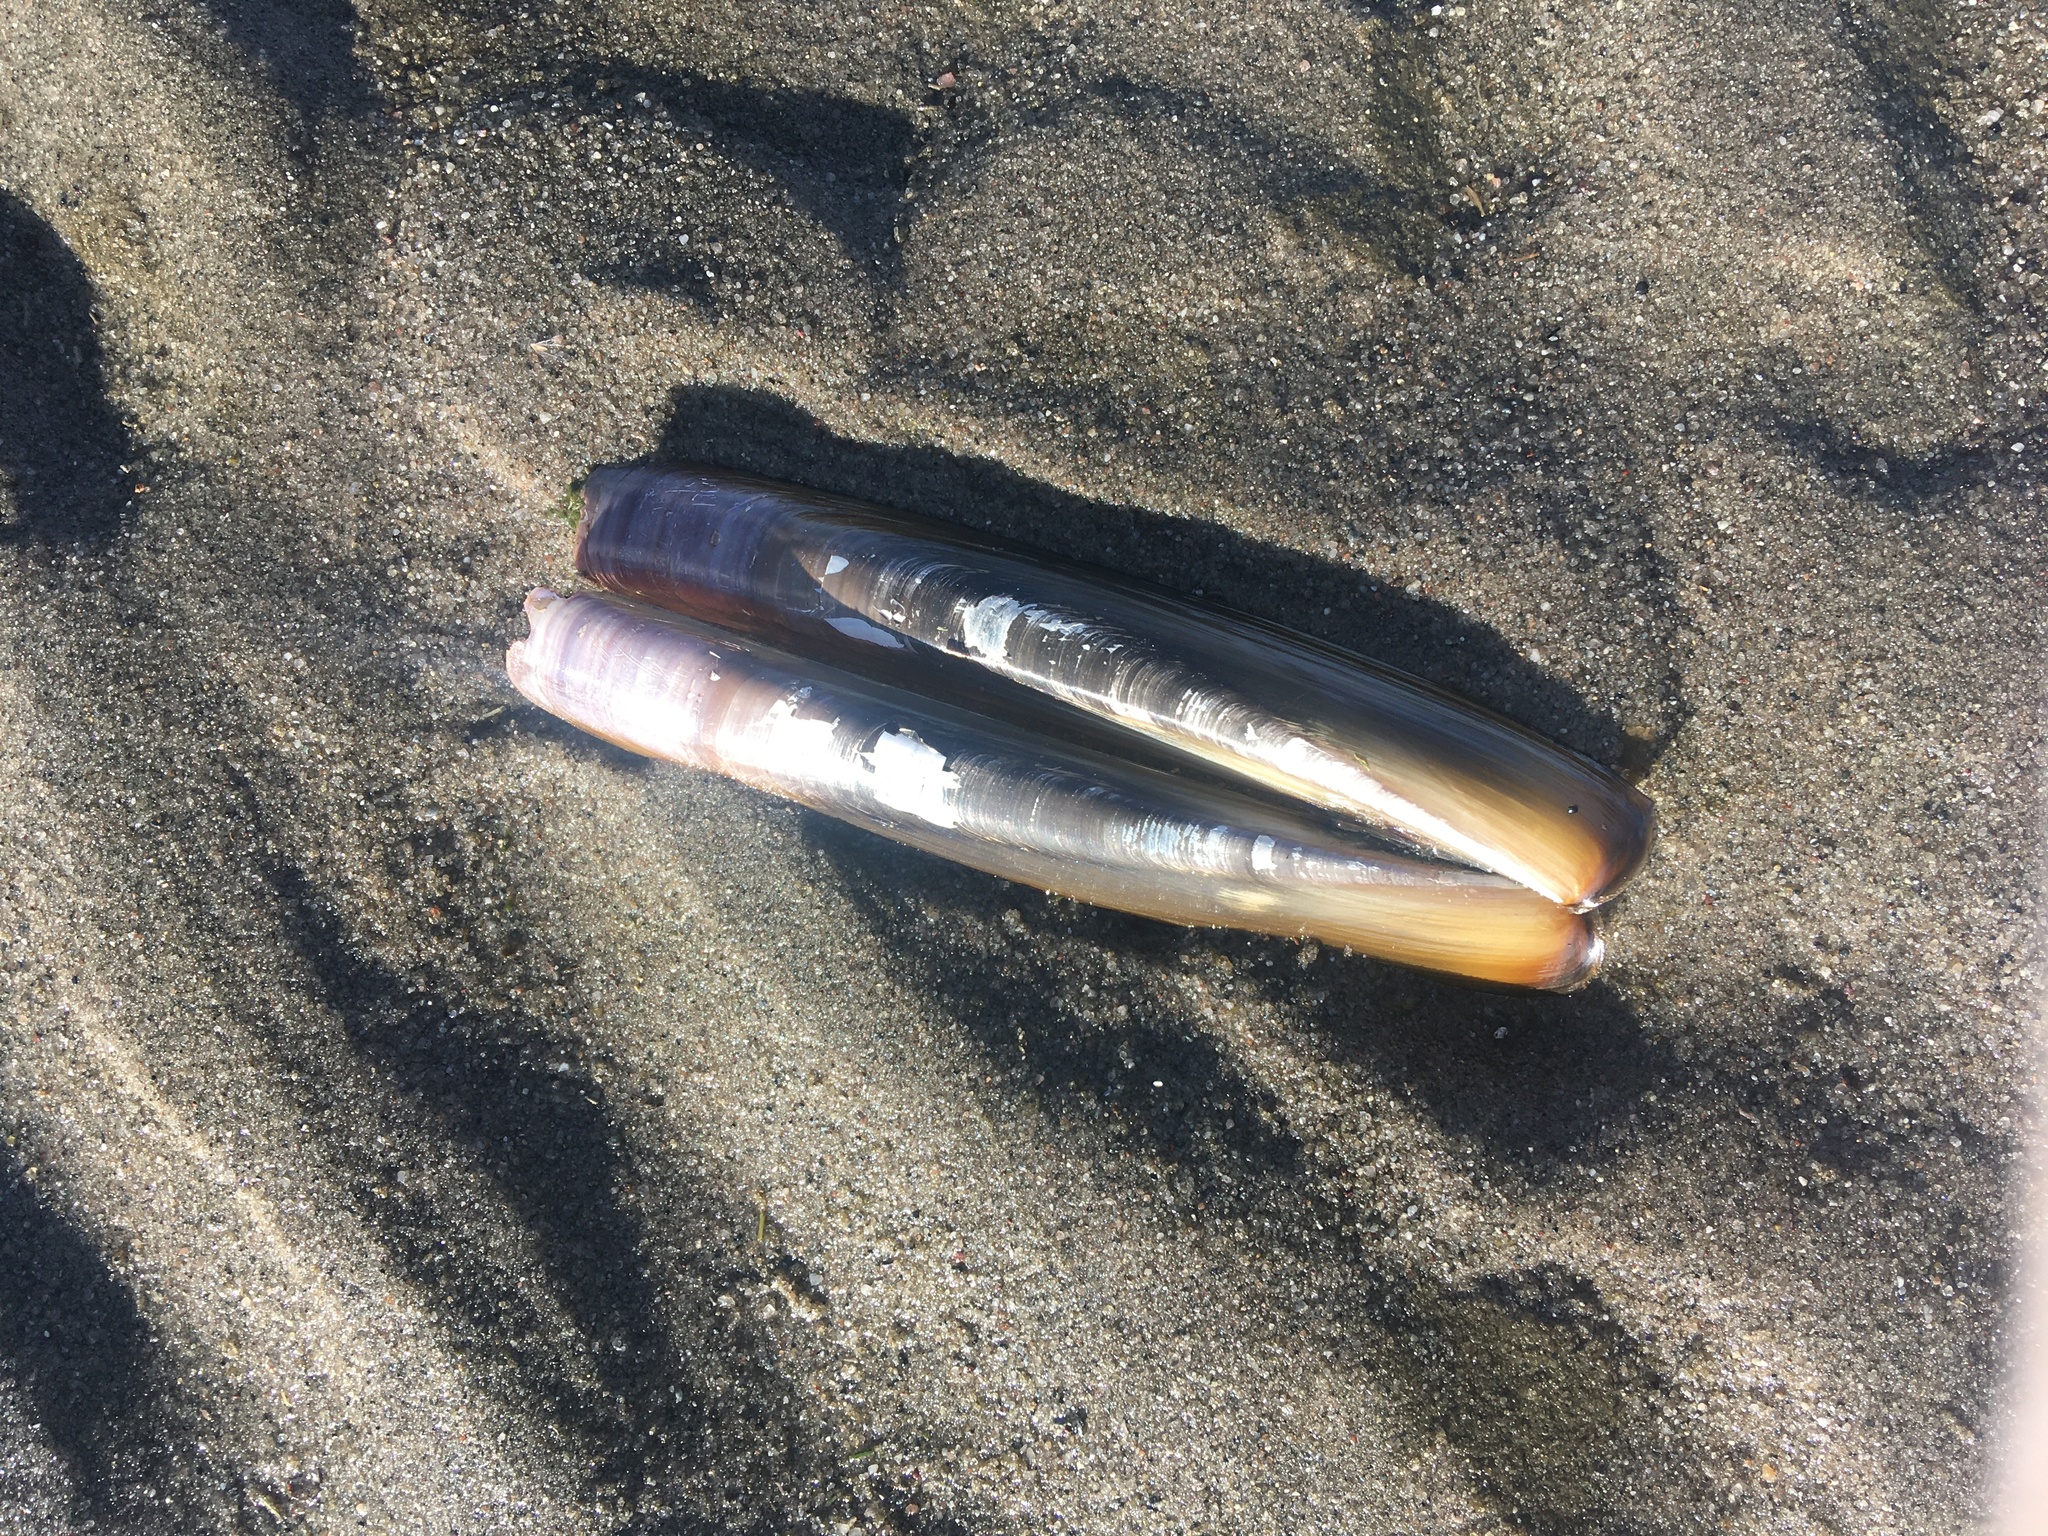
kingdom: Animalia
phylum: Mollusca
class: Bivalvia
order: Adapedonta
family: Pharidae
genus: Ensis
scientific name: Ensis leei
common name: American jack knife clam
